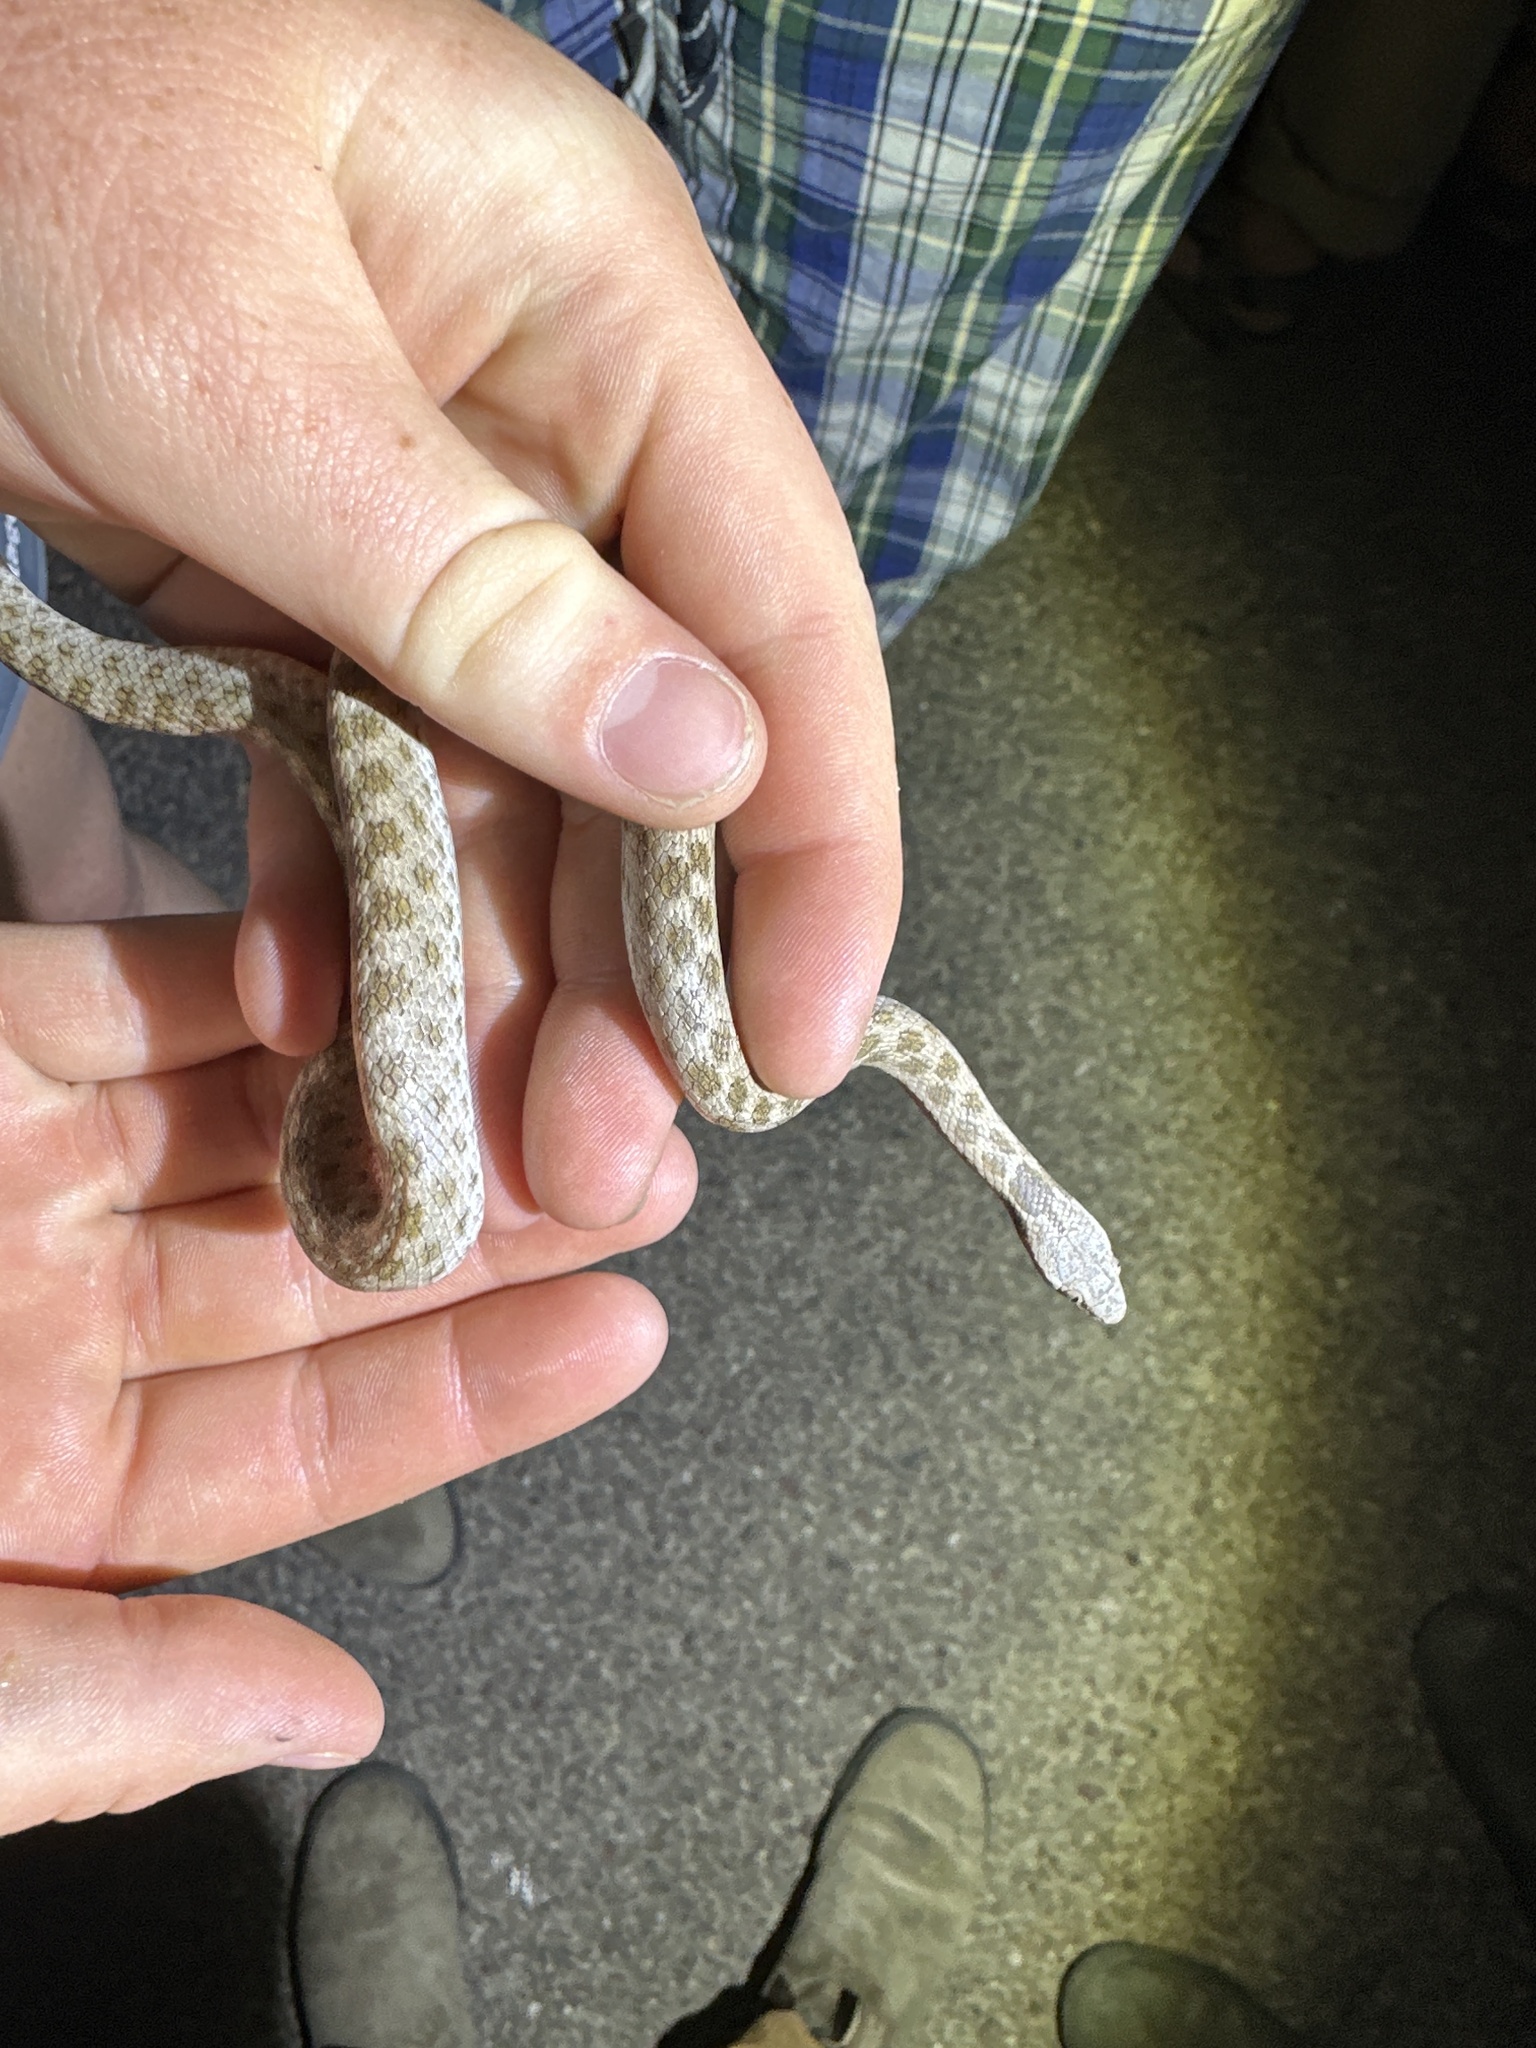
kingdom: Animalia
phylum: Chordata
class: Squamata
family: Colubridae
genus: Hypsiglena
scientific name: Hypsiglena chlorophaea
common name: Desert nightsnake
